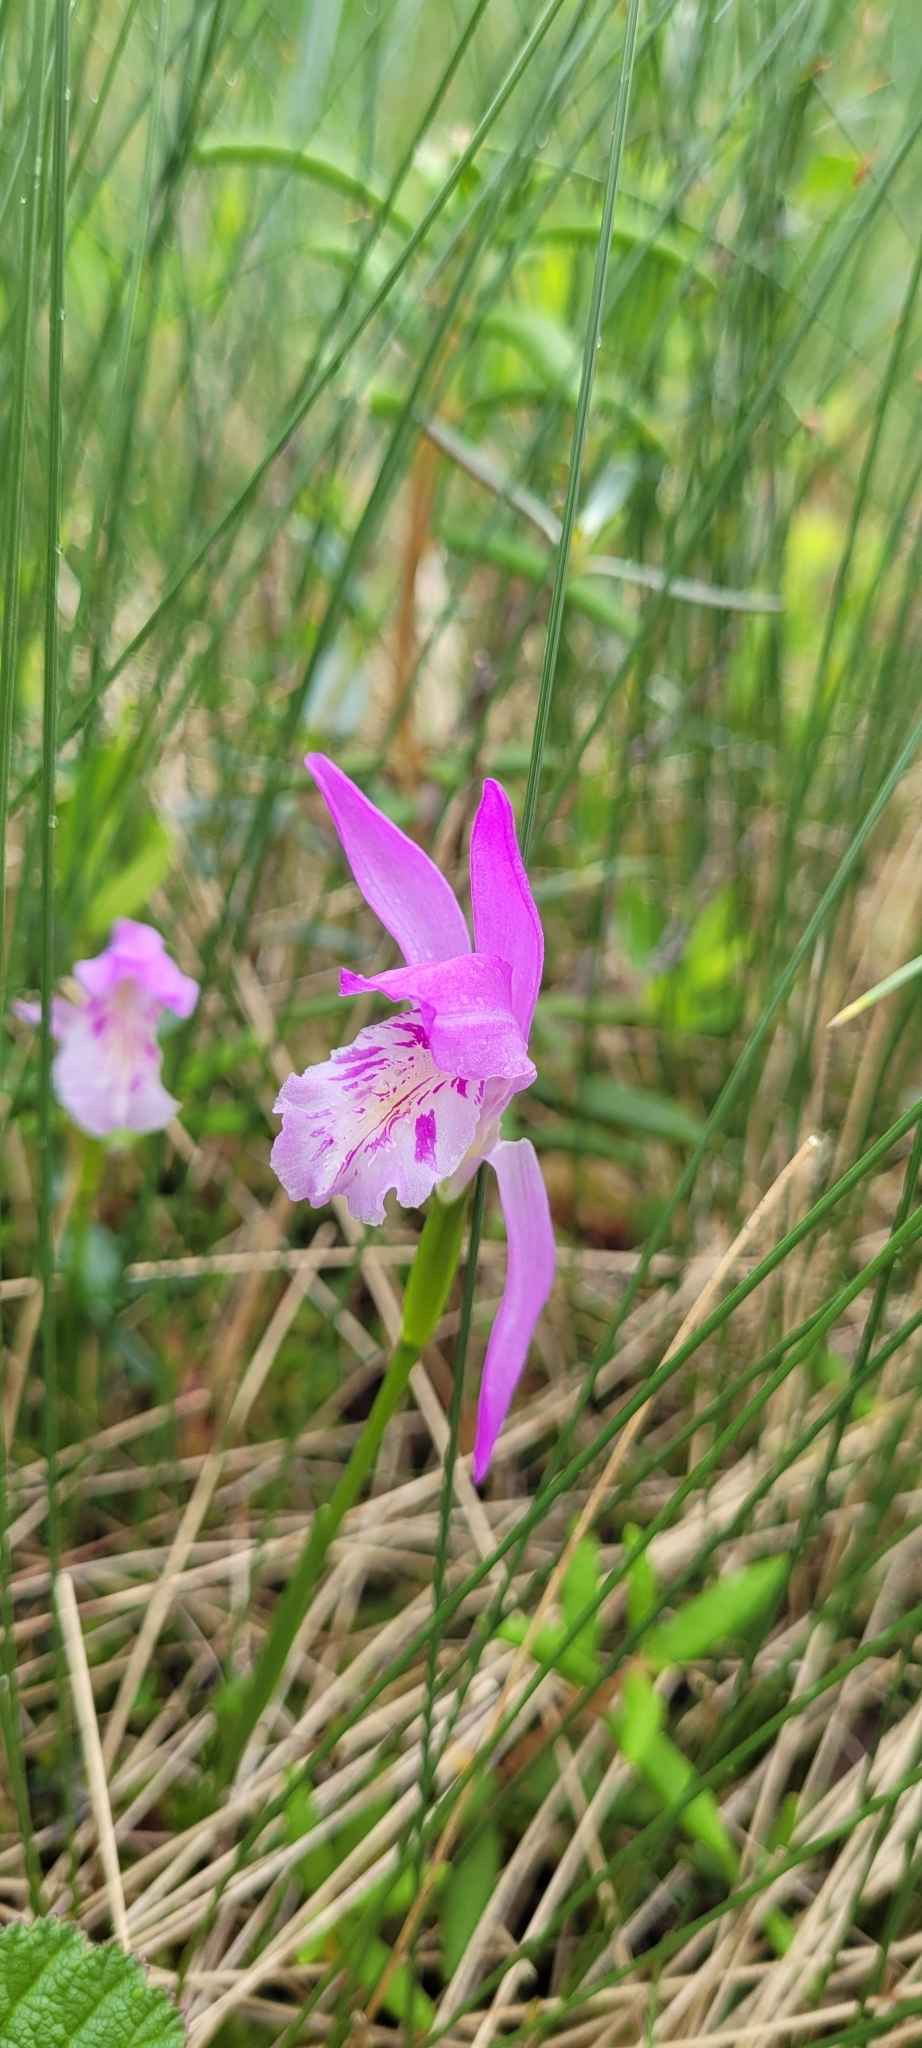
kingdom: Plantae
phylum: Tracheophyta
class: Liliopsida
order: Asparagales
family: Orchidaceae
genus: Arethusa
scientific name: Arethusa bulbosa
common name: Arethusa
